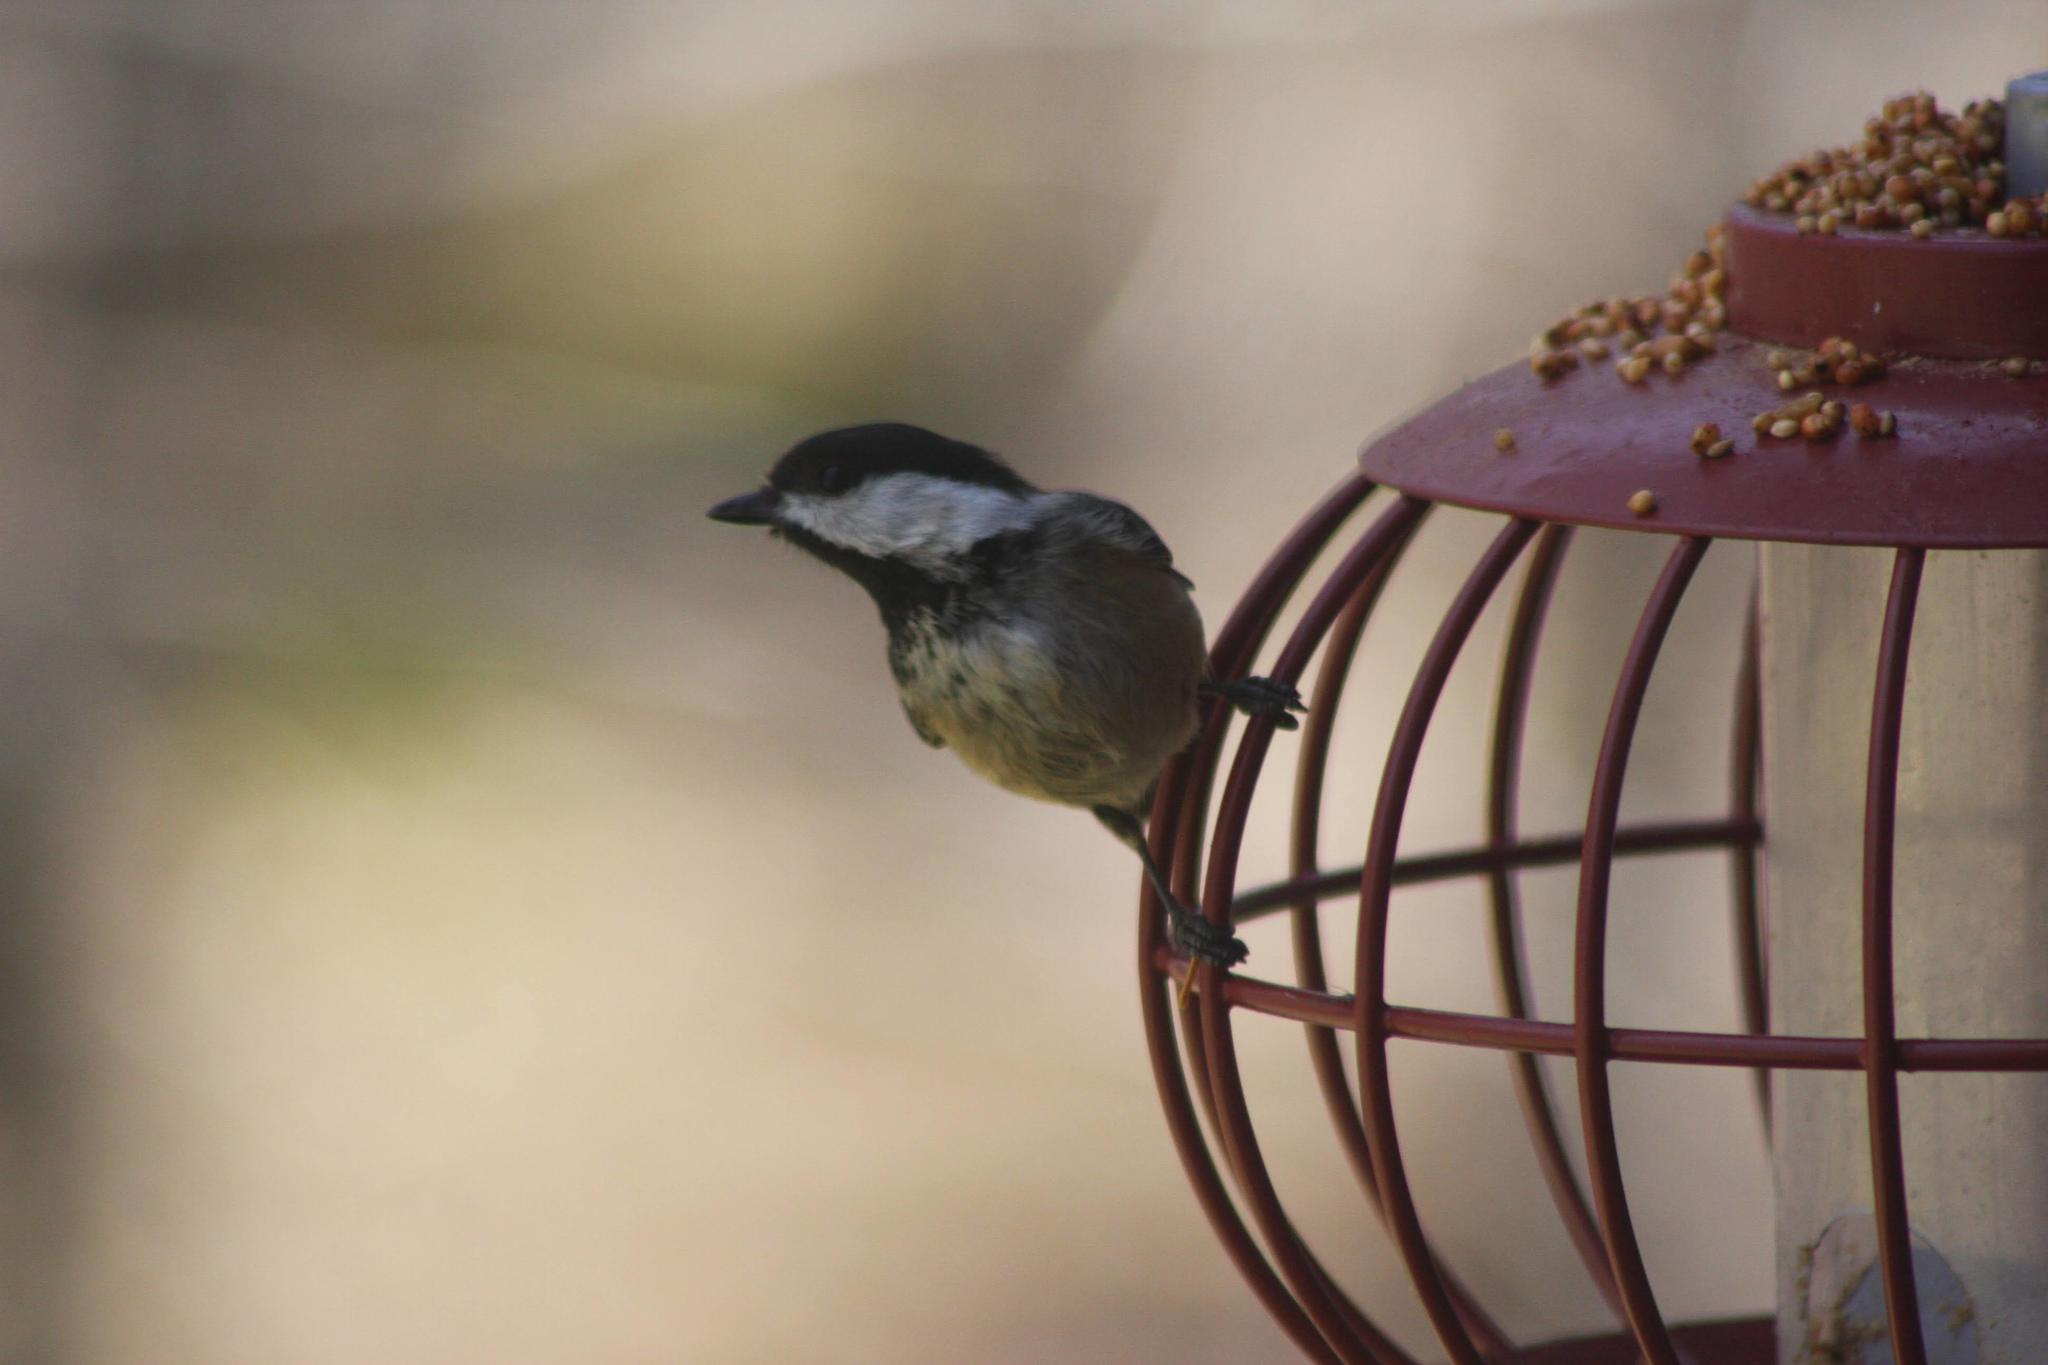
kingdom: Animalia
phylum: Chordata
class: Aves
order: Passeriformes
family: Paridae
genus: Poecile
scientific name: Poecile atricapillus
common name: Black-capped chickadee
